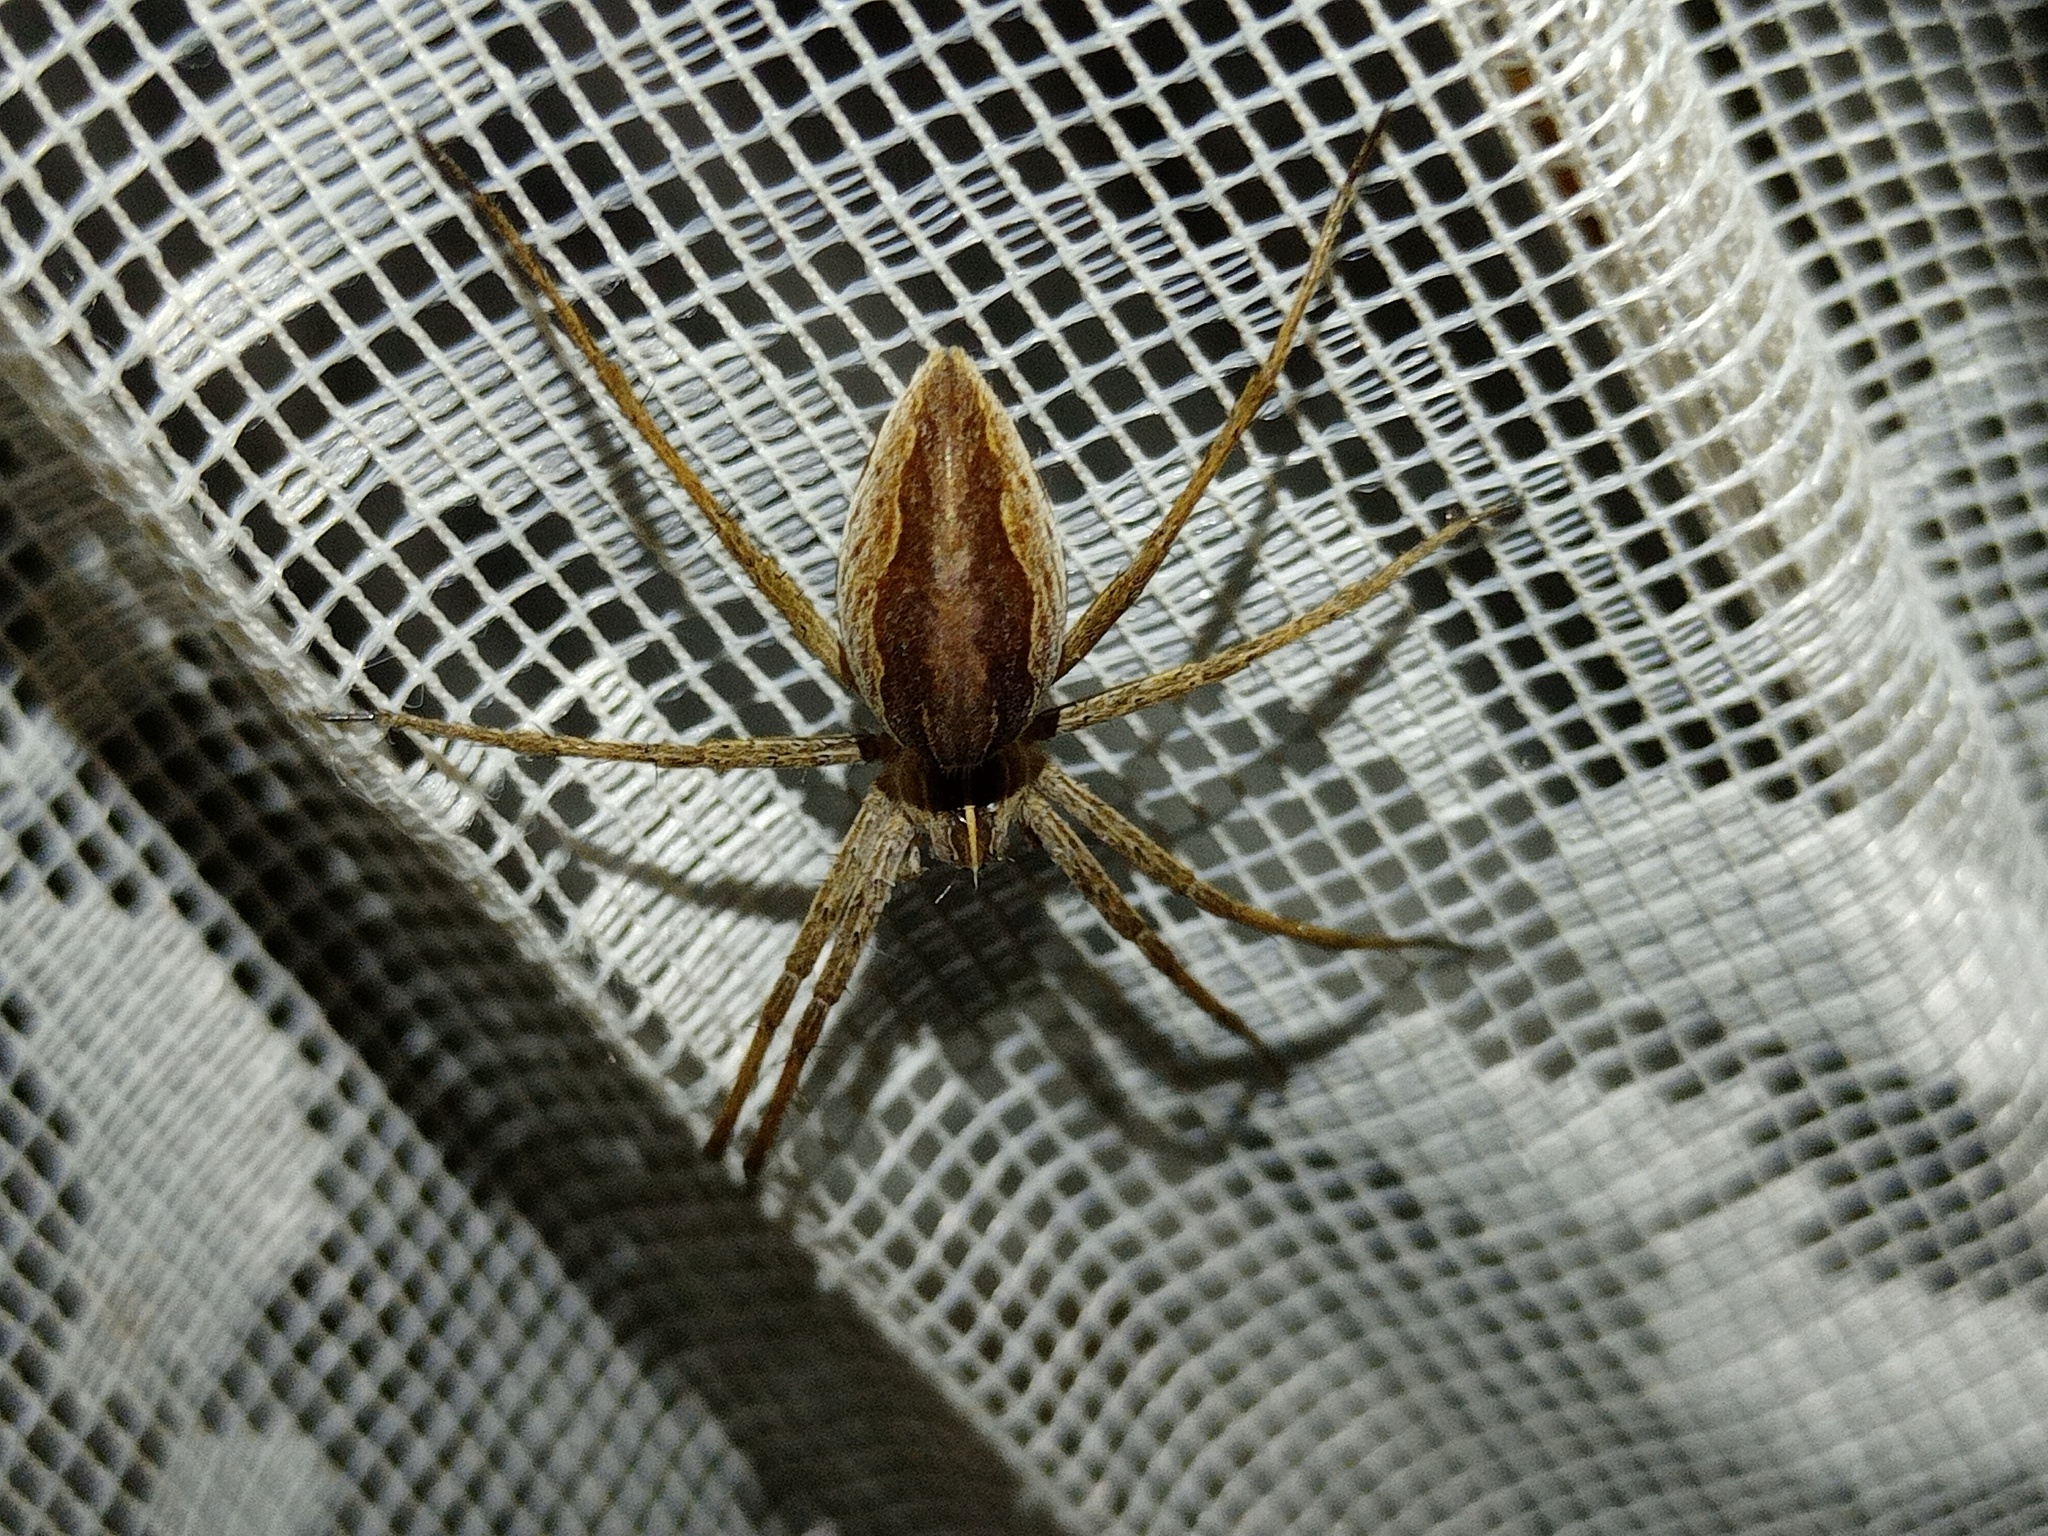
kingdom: Animalia
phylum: Arthropoda
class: Arachnida
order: Araneae
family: Pisauridae
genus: Pisaura
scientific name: Pisaura mirabilis
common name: Tent spider
